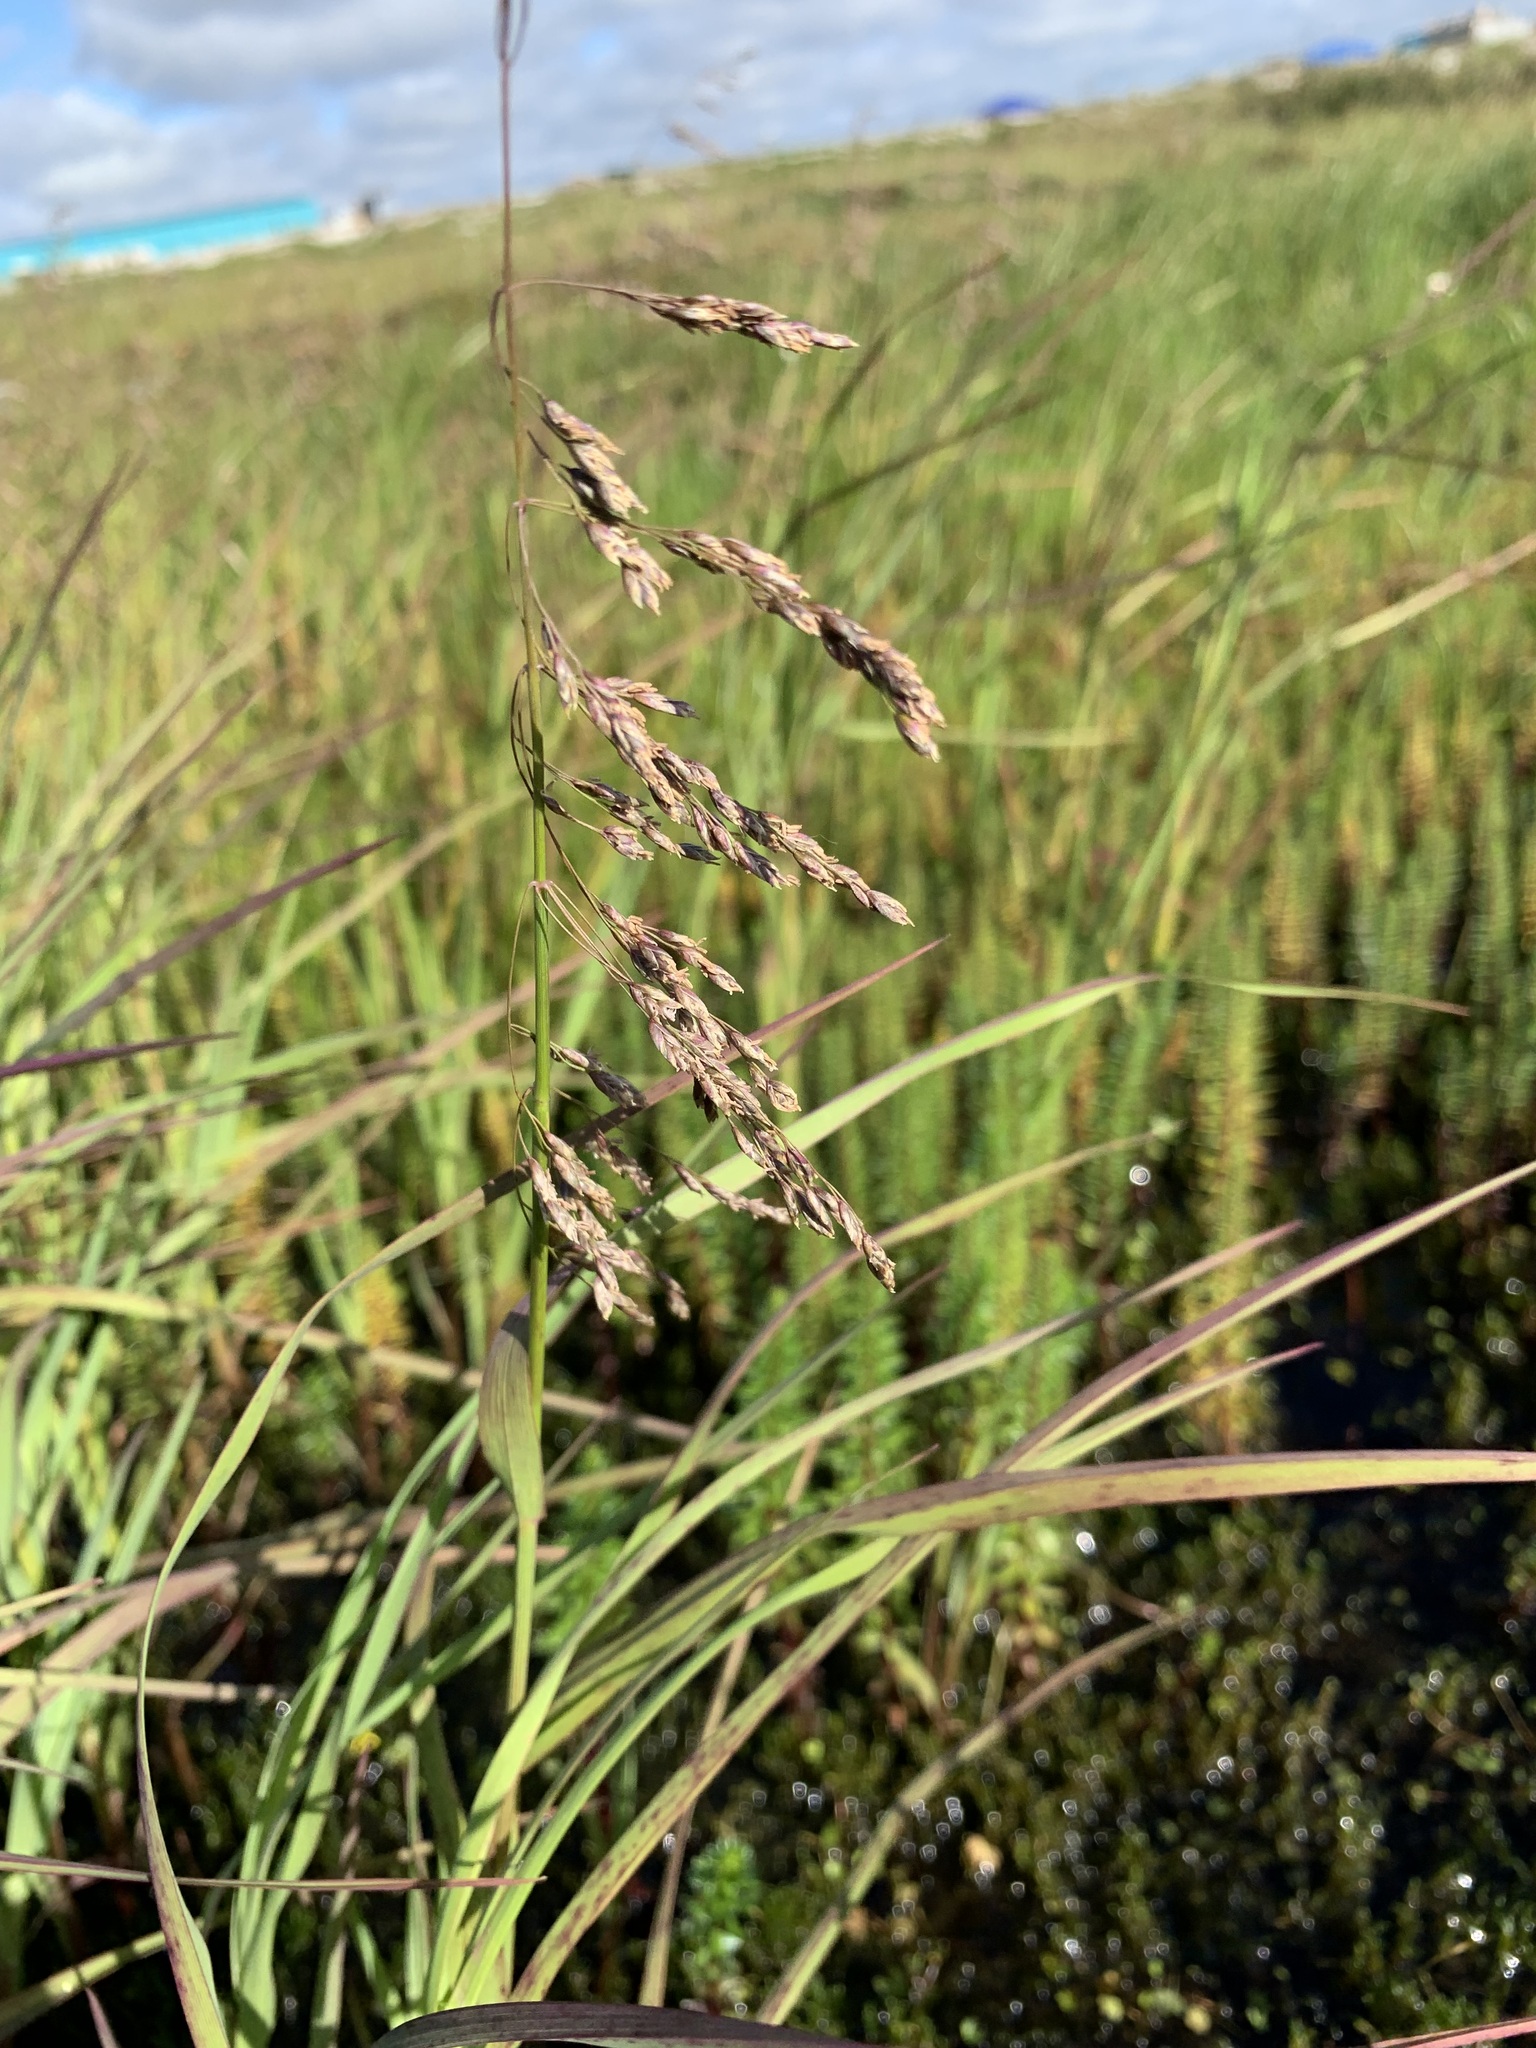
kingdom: Plantae
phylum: Tracheophyta
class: Liliopsida
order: Poales
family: Poaceae
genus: Dupontia
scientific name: Dupontia fulva
